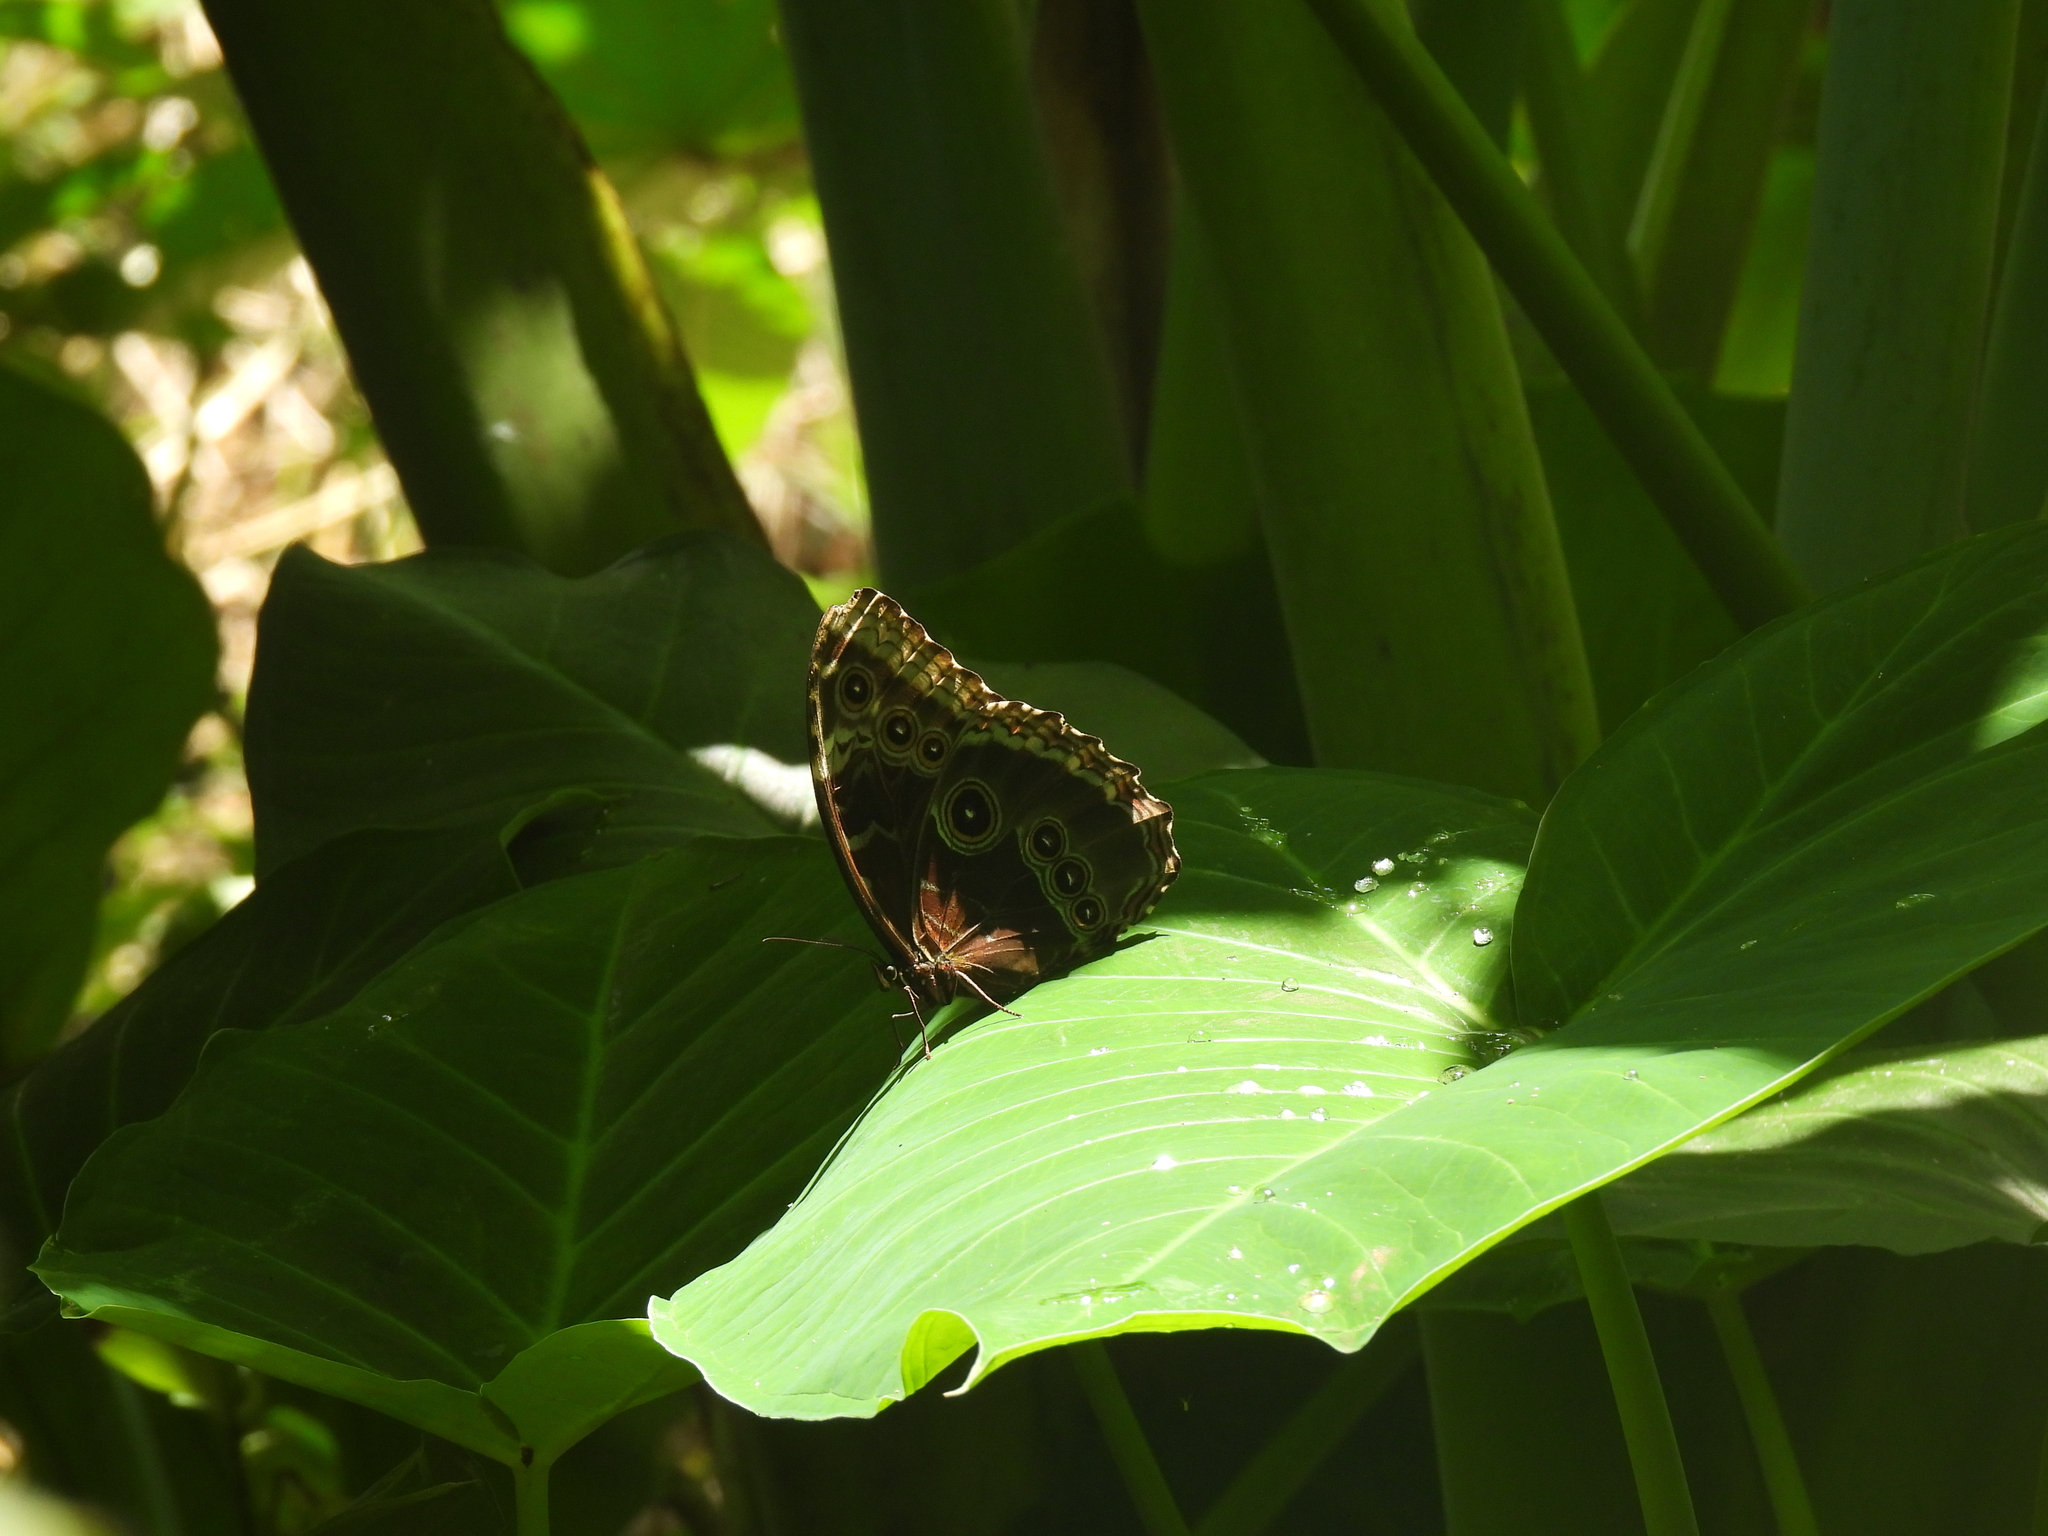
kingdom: Animalia
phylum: Arthropoda
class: Insecta
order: Lepidoptera
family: Nymphalidae
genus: Morpho
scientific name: Morpho helenor
